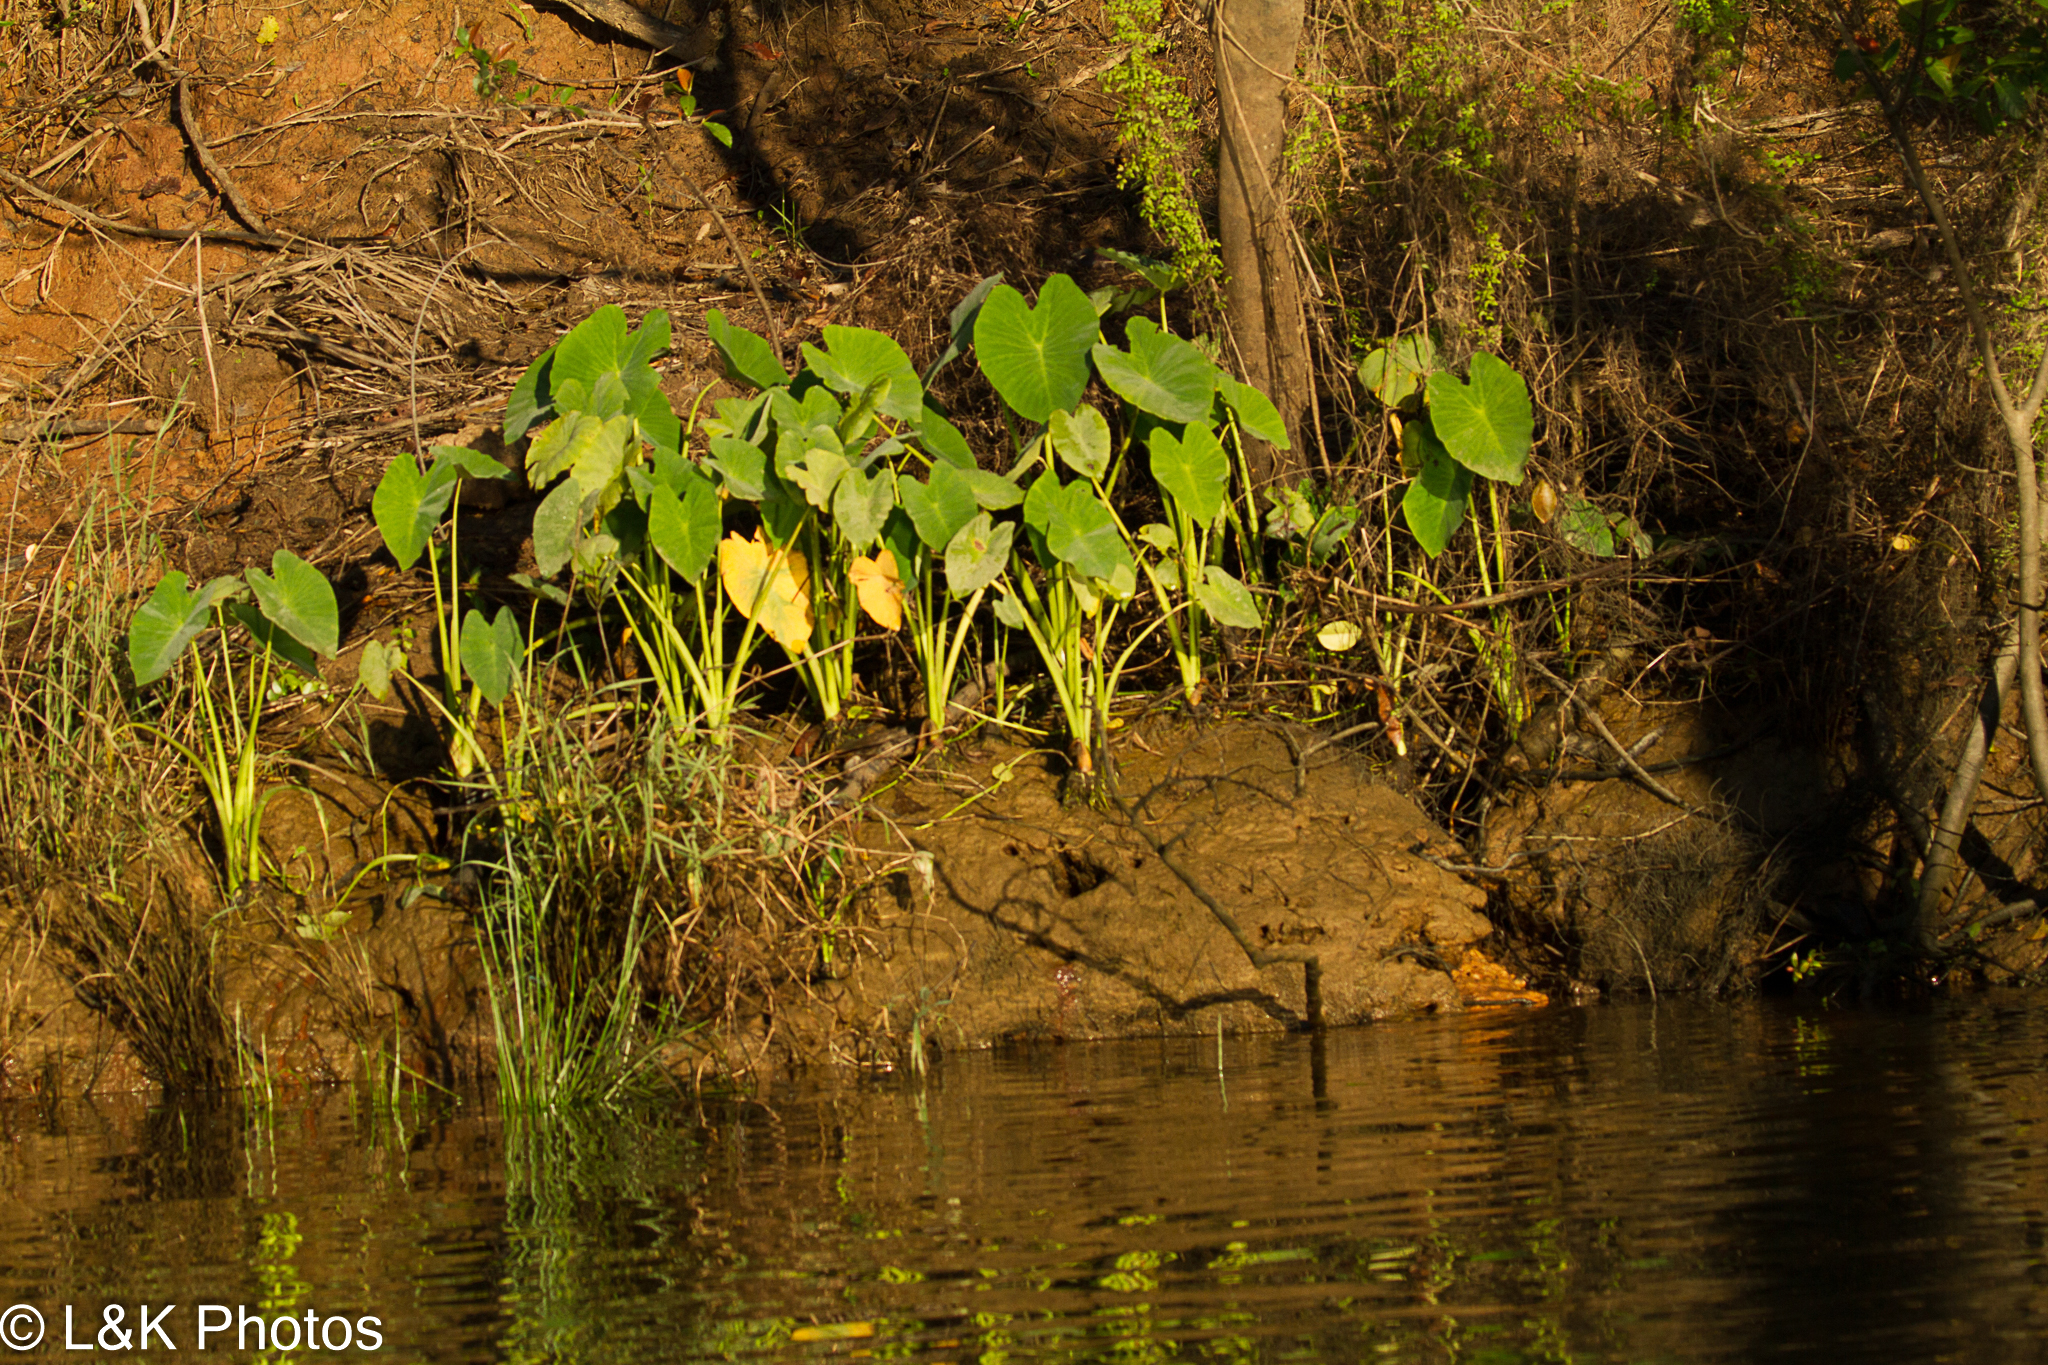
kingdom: Plantae
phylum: Tracheophyta
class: Liliopsida
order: Alismatales
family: Araceae
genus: Colocasia
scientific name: Colocasia esculenta
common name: Taro
